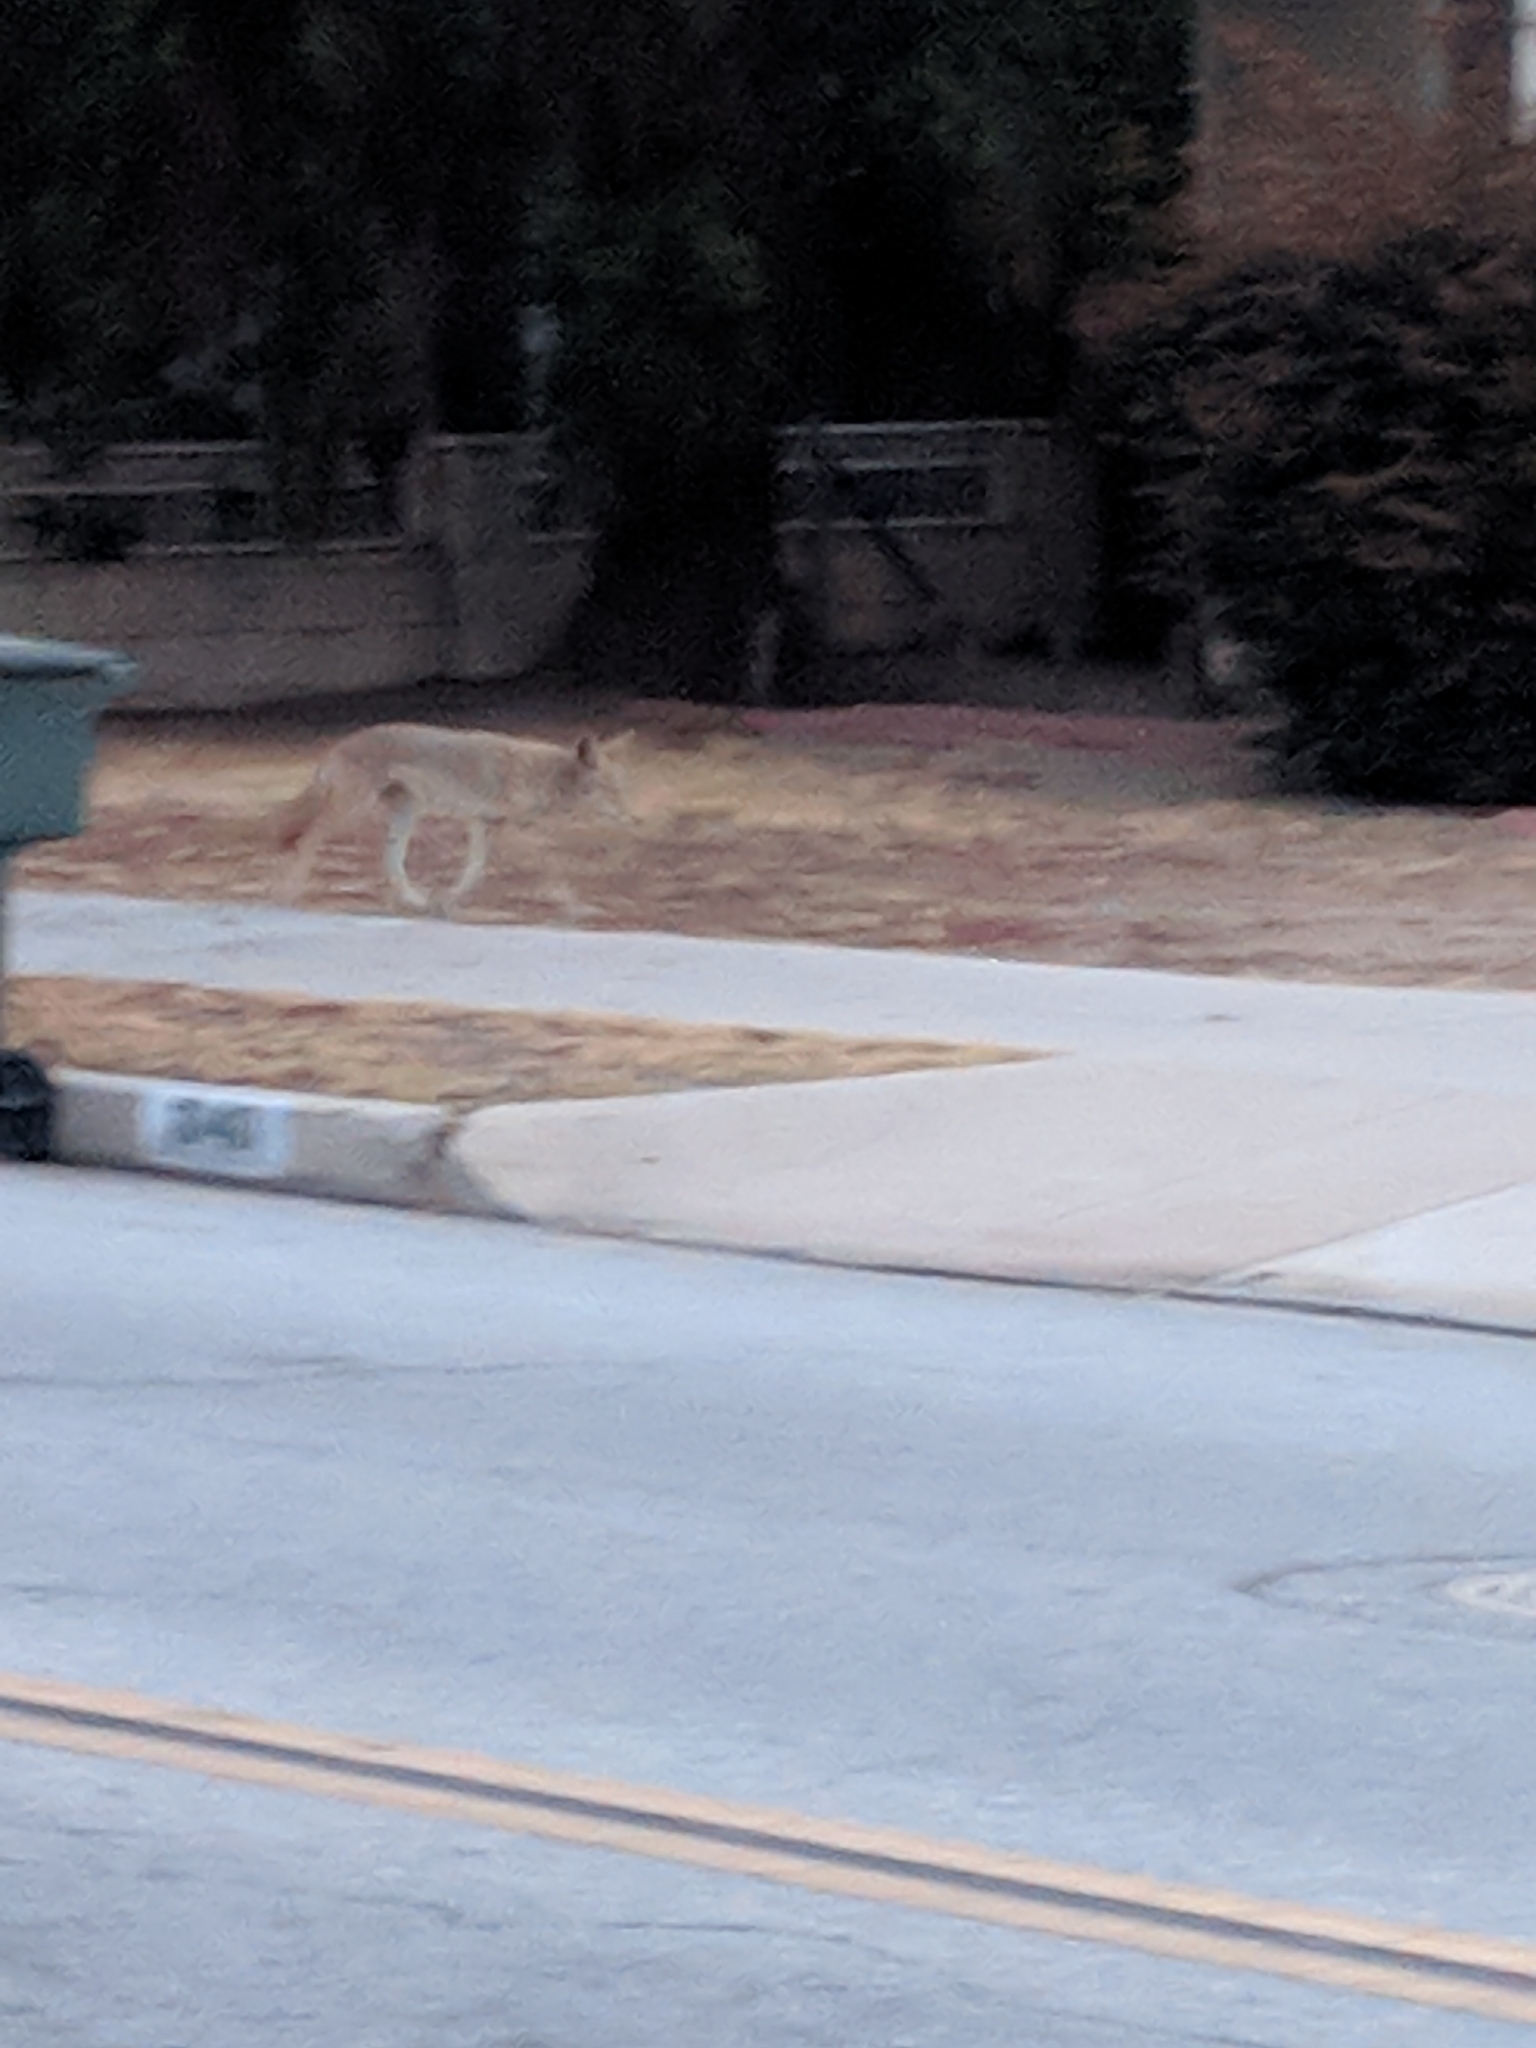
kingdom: Animalia
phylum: Chordata
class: Mammalia
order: Carnivora
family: Canidae
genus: Canis
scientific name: Canis latrans
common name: Coyote
